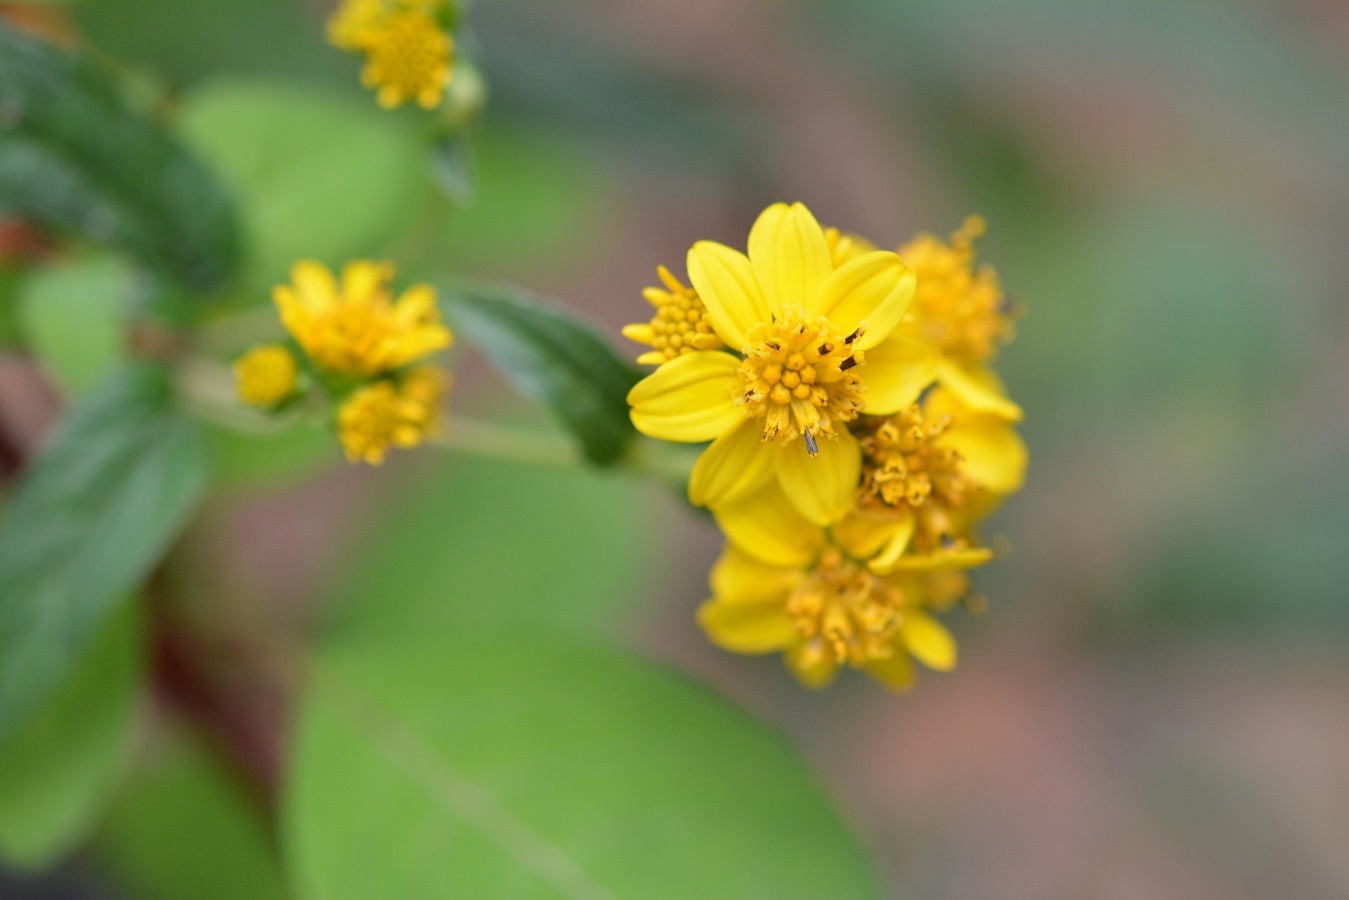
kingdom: Plantae
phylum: Tracheophyta
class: Magnoliopsida
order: Asterales
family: Asteraceae
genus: Perymenium
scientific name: Perymenium ghiesbreghtii
